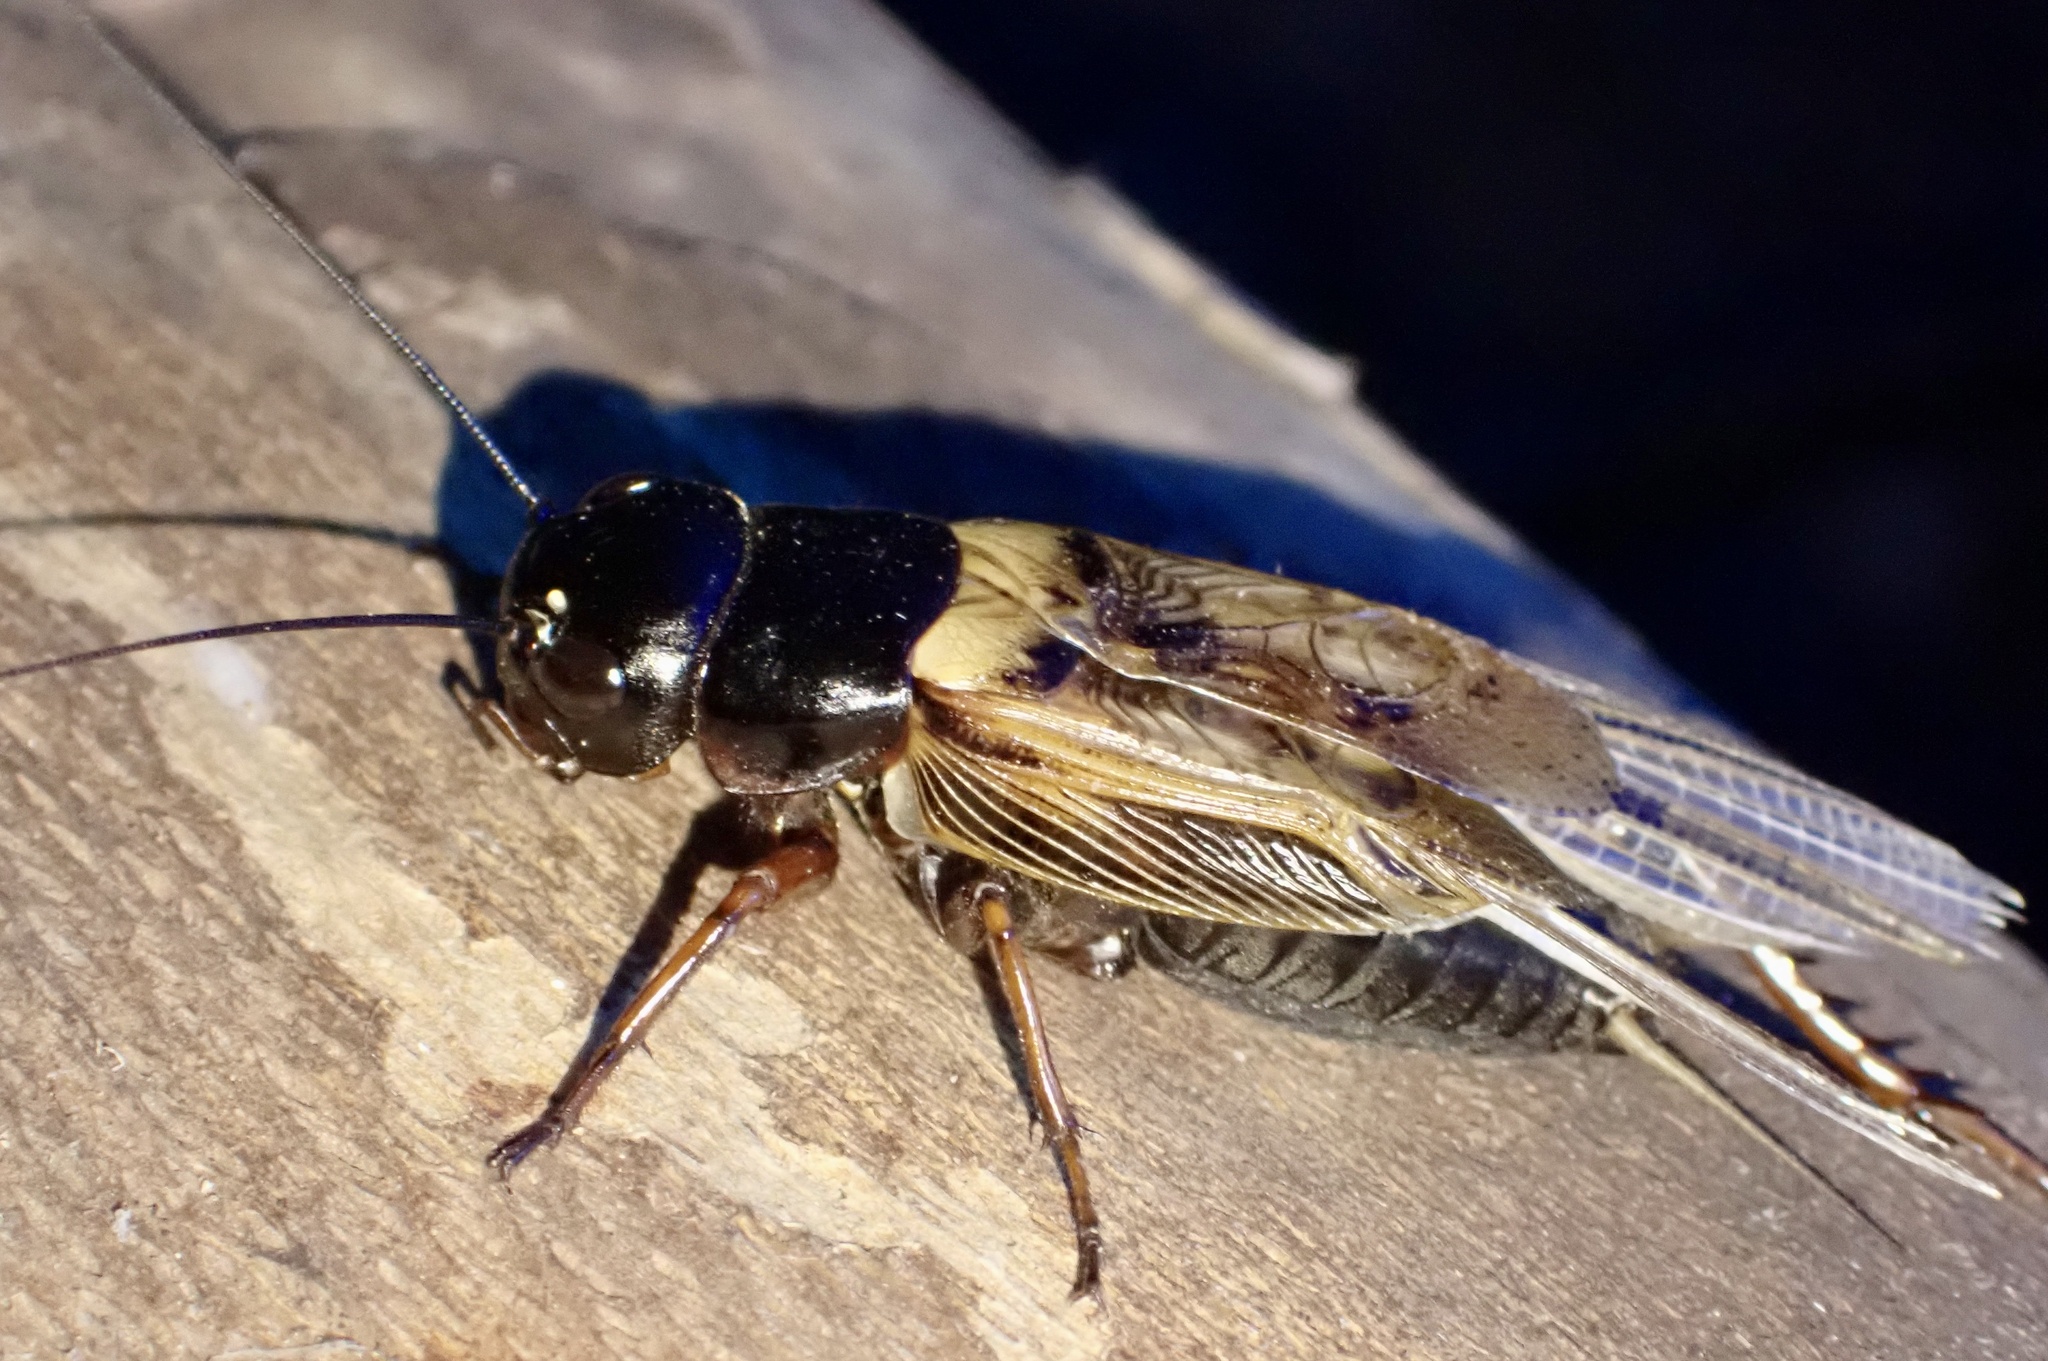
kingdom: Animalia
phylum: Arthropoda
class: Insecta
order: Orthoptera
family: Gryllidae
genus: Gryllus
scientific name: Gryllus bimaculatus
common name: Two-spotted cricket
